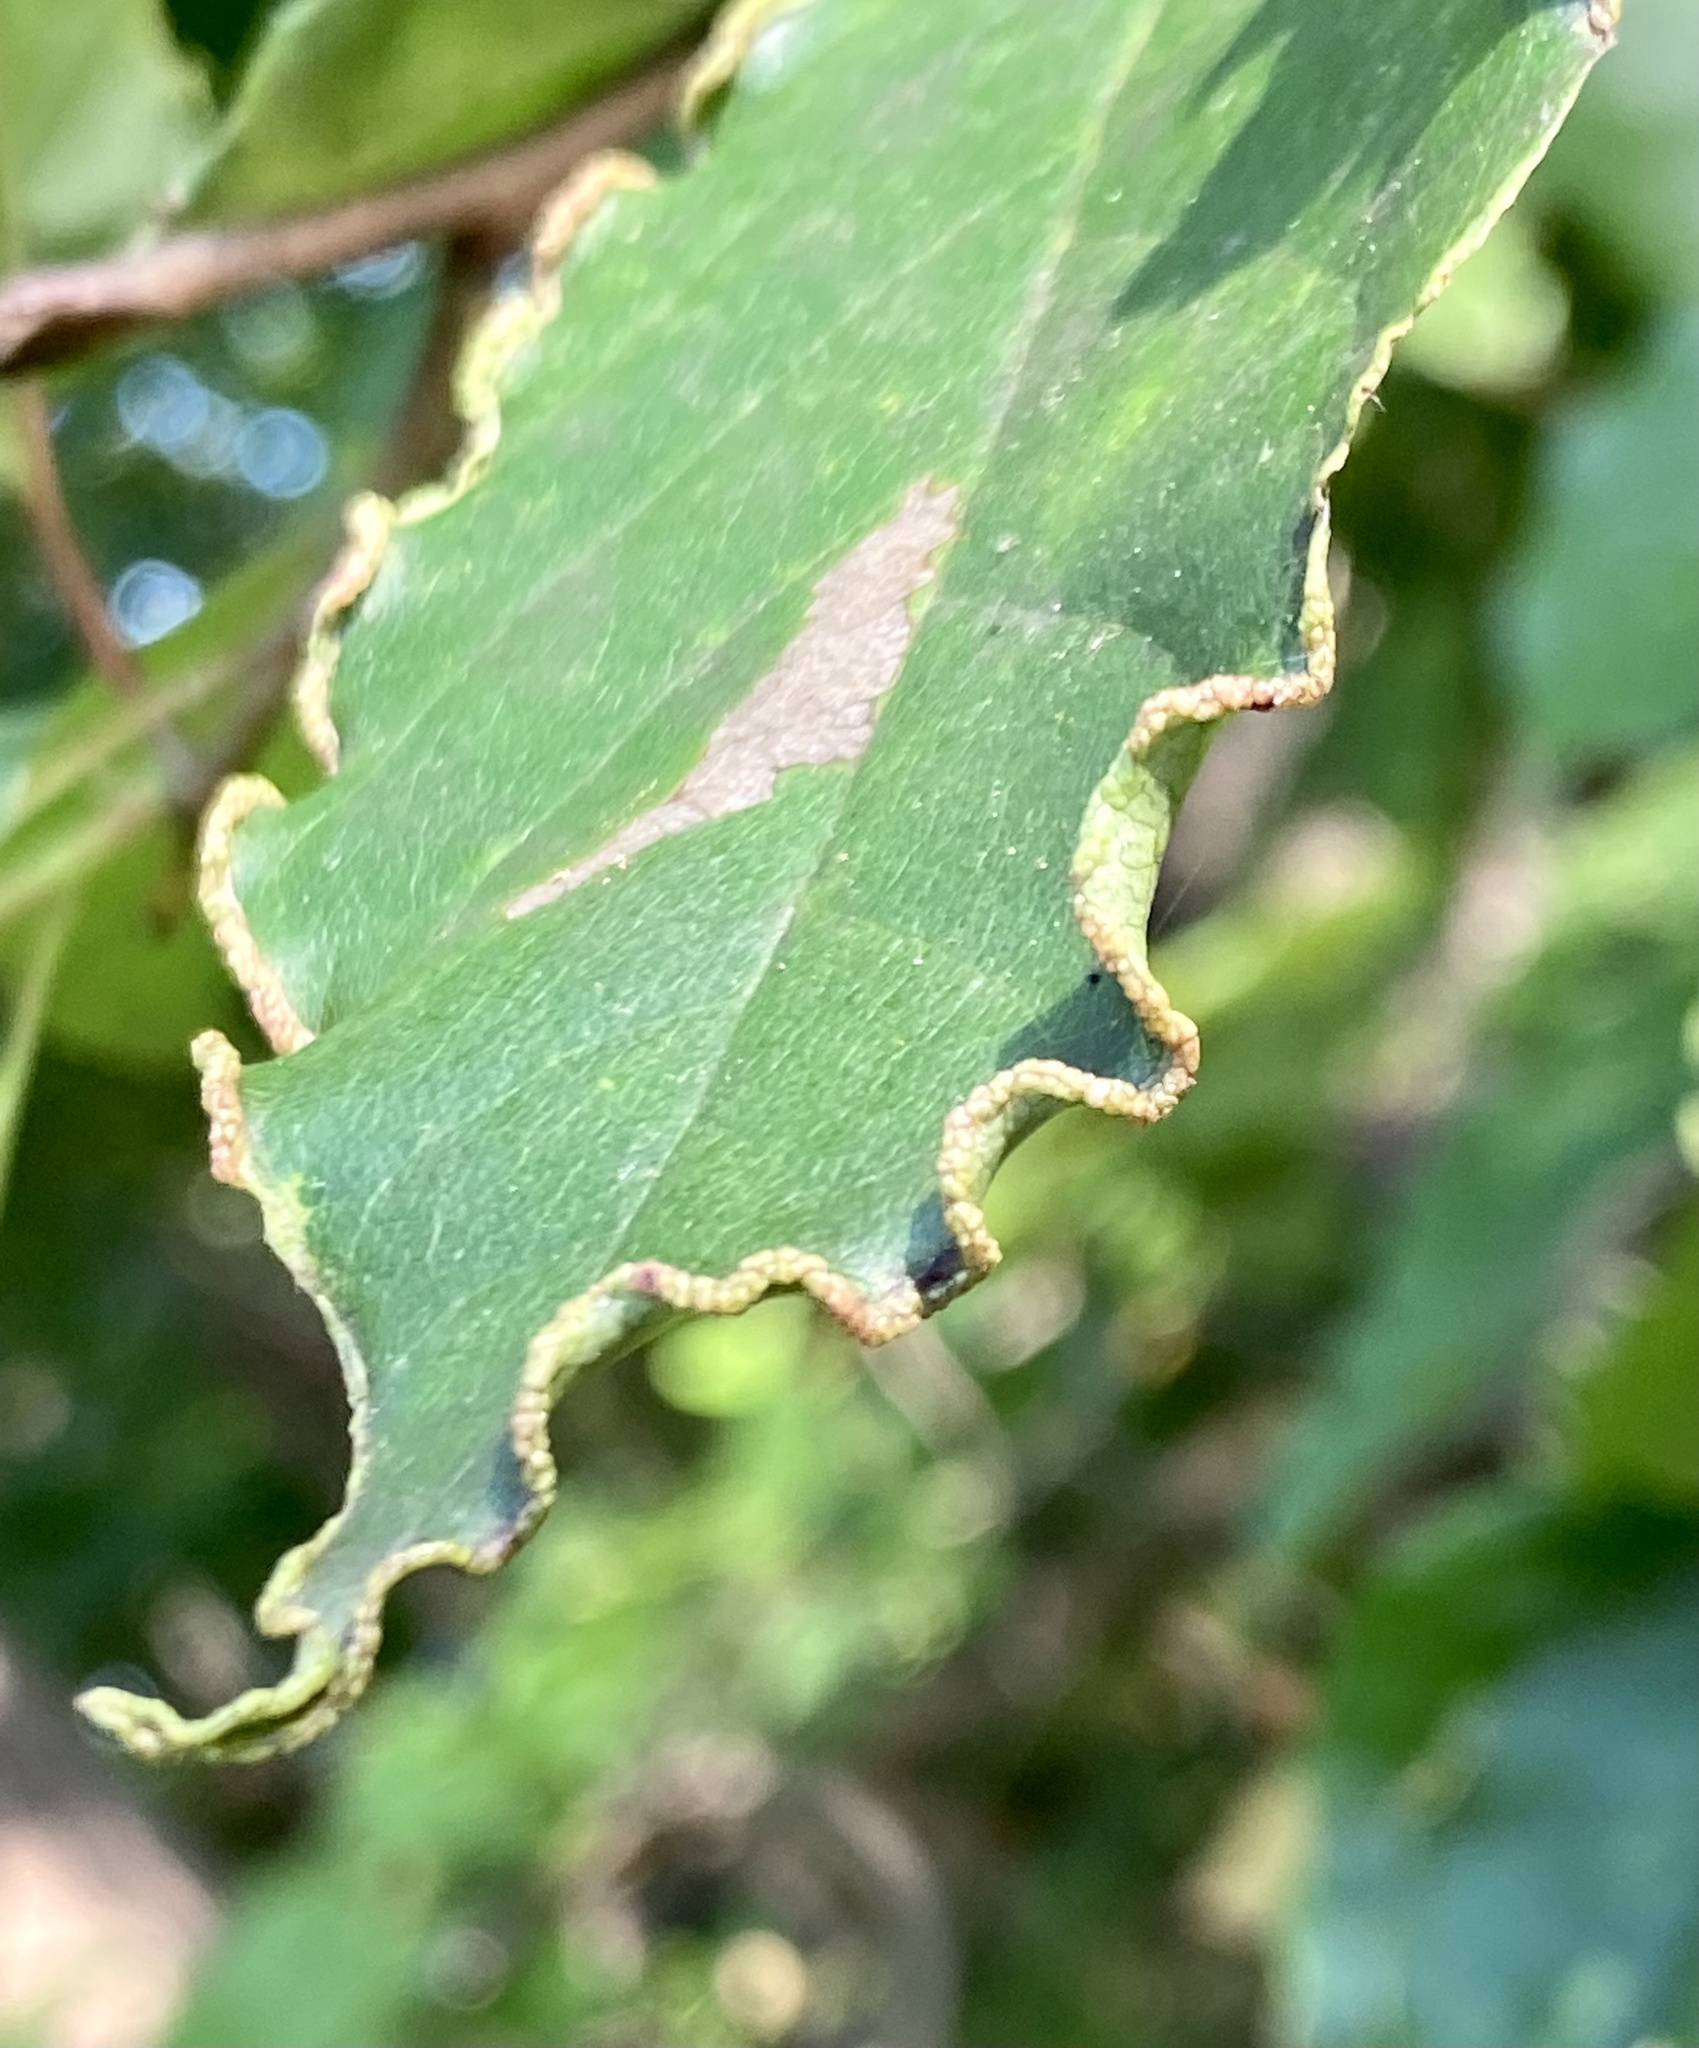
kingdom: Animalia
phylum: Arthropoda
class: Arachnida
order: Trombidiformes
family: Eriophyidae
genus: Aceria
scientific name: Aceria
